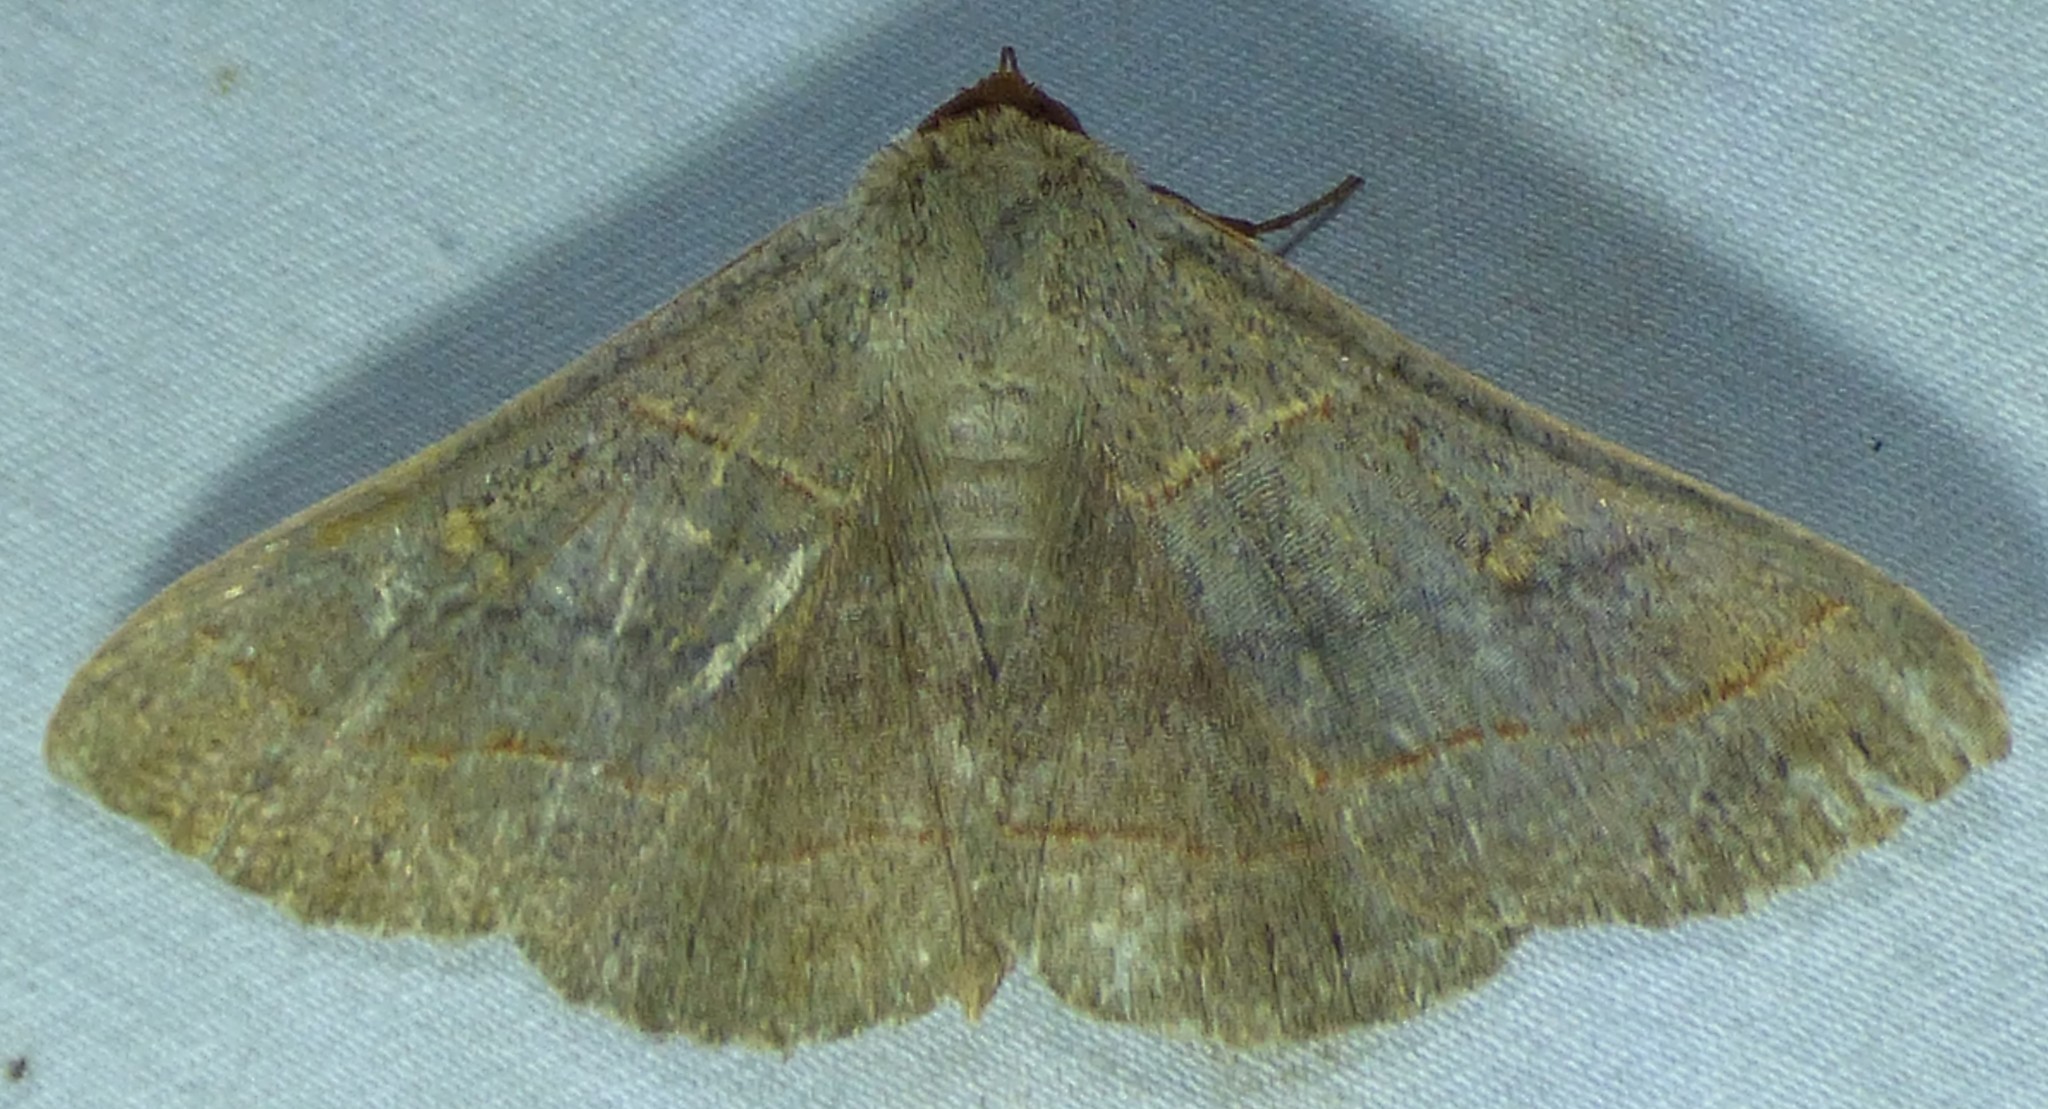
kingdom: Animalia
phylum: Arthropoda
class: Insecta
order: Lepidoptera
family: Erebidae
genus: Panopoda
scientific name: Panopoda rufimargo
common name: Red-lined panopoda moth
